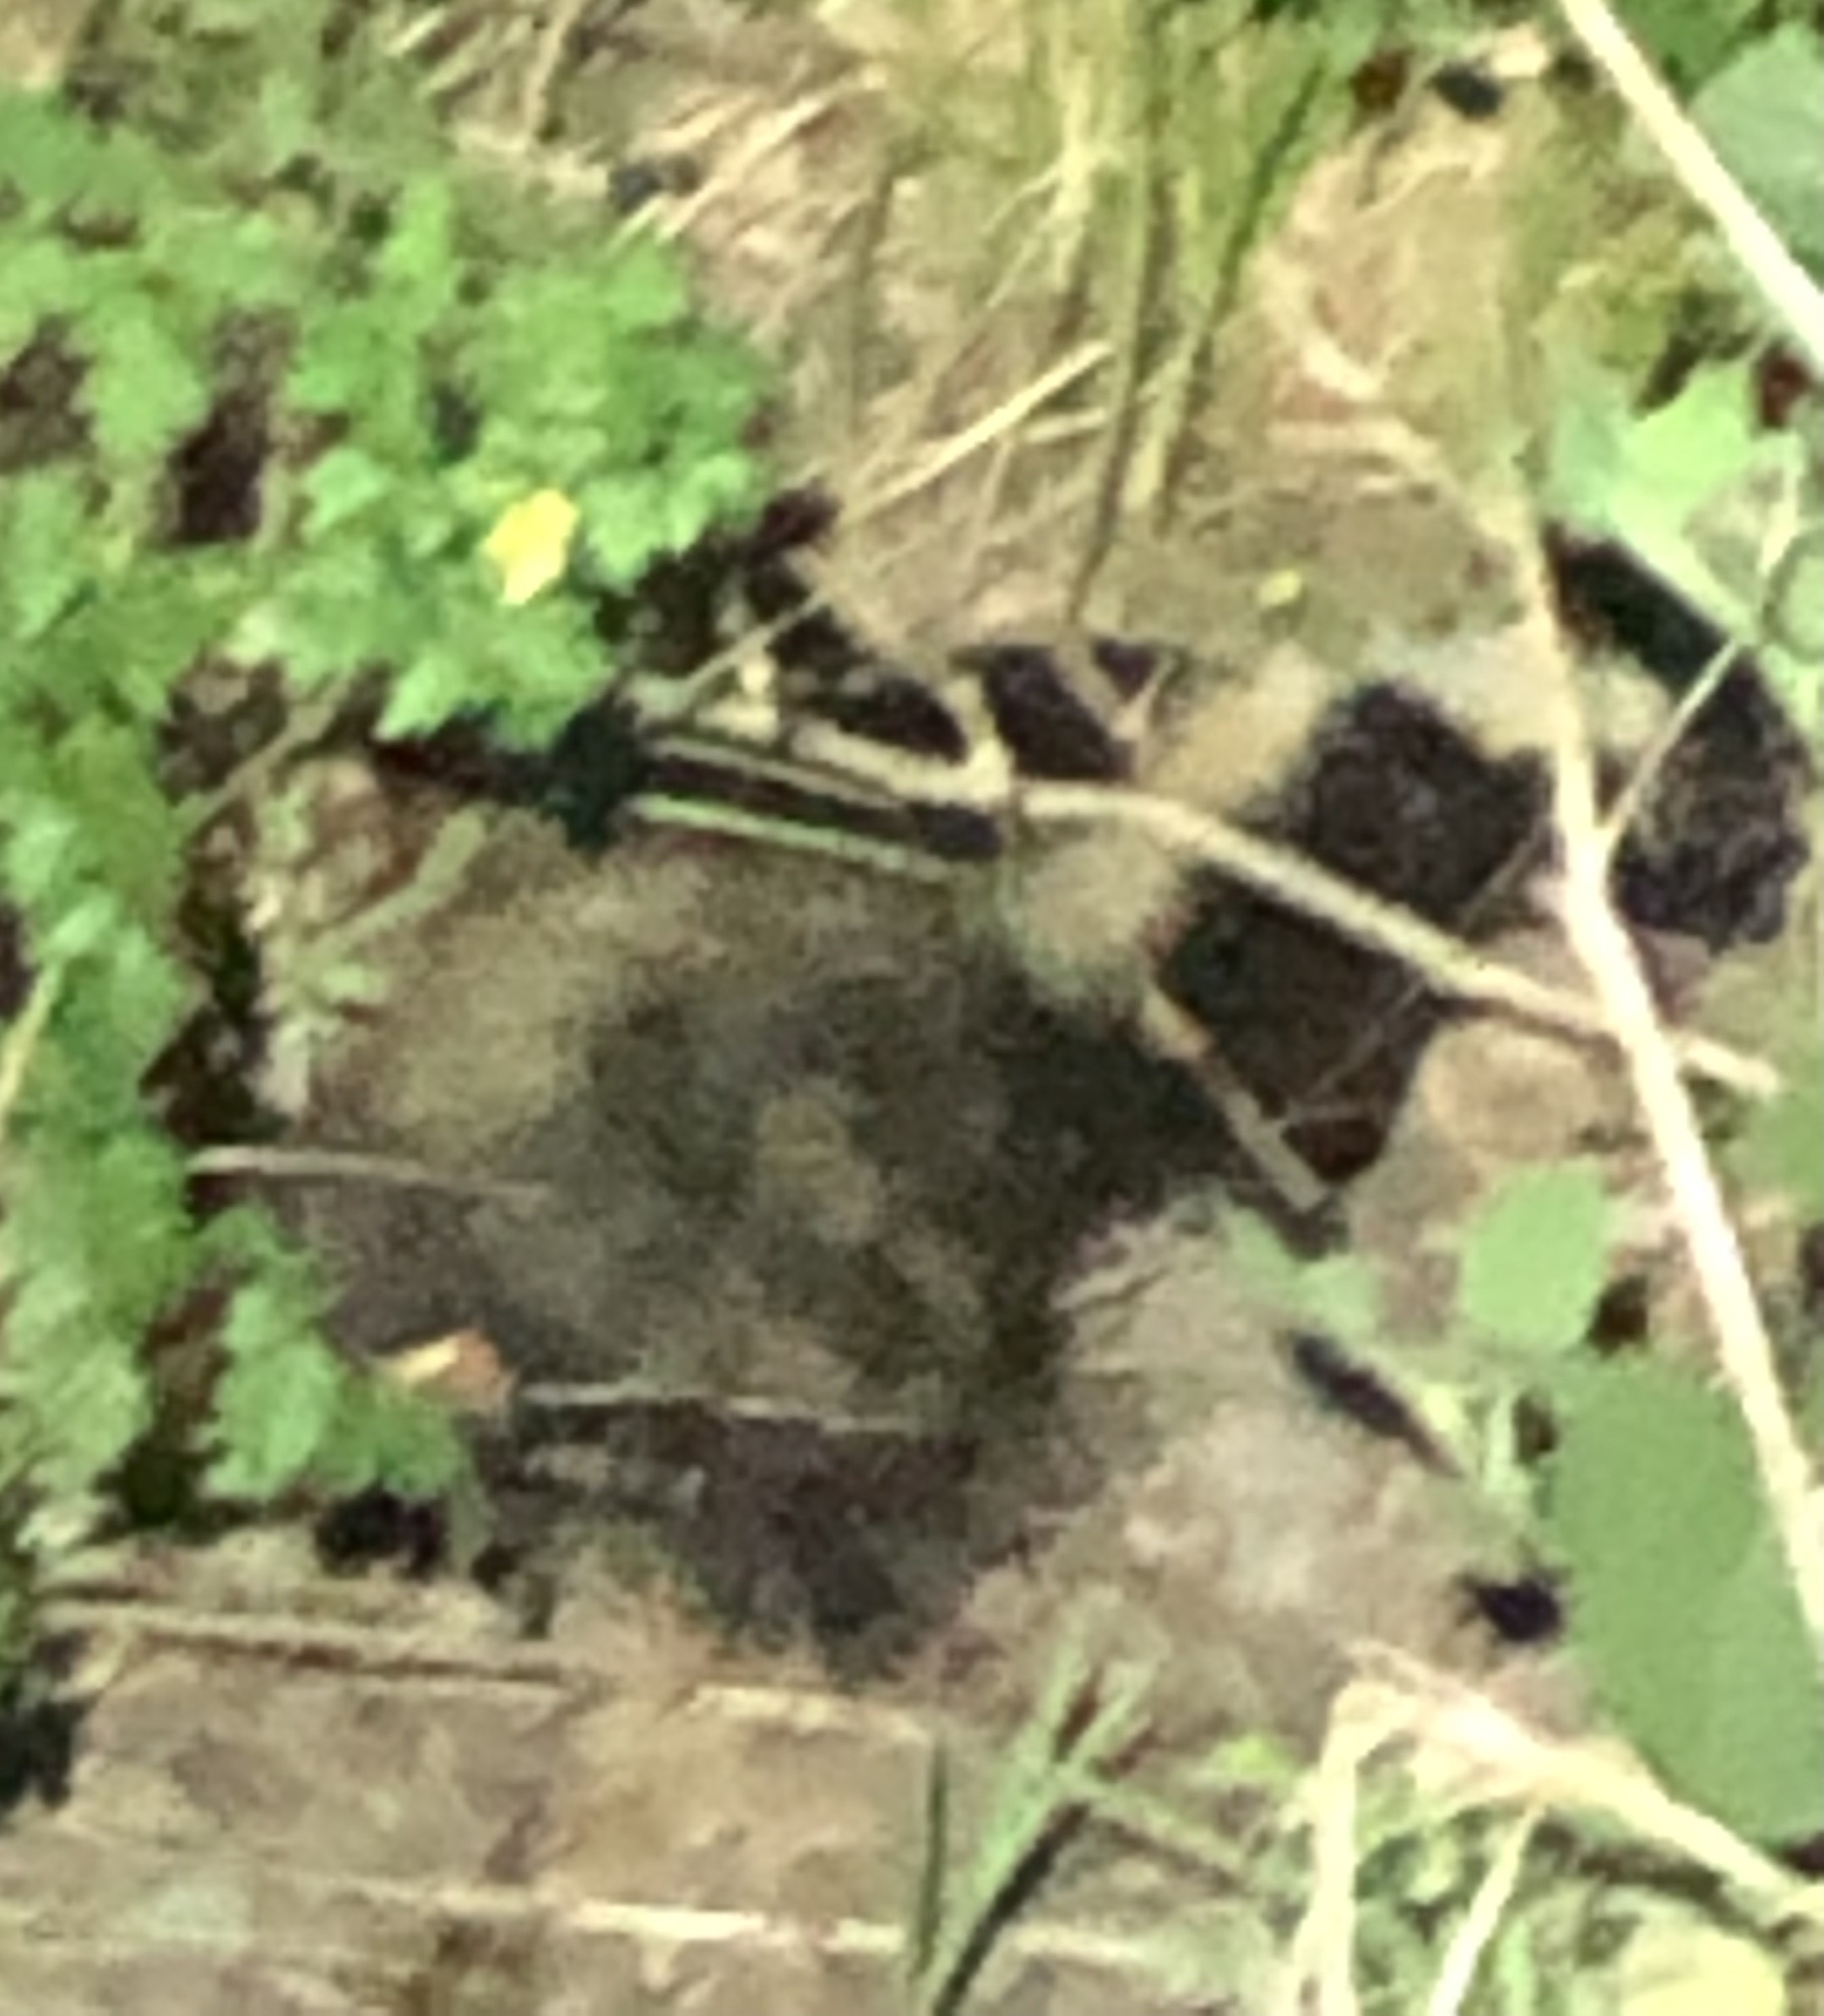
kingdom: Animalia
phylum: Chordata
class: Mammalia
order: Carnivora
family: Mephitidae
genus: Mephitis
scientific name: Mephitis mephitis
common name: Striped skunk
